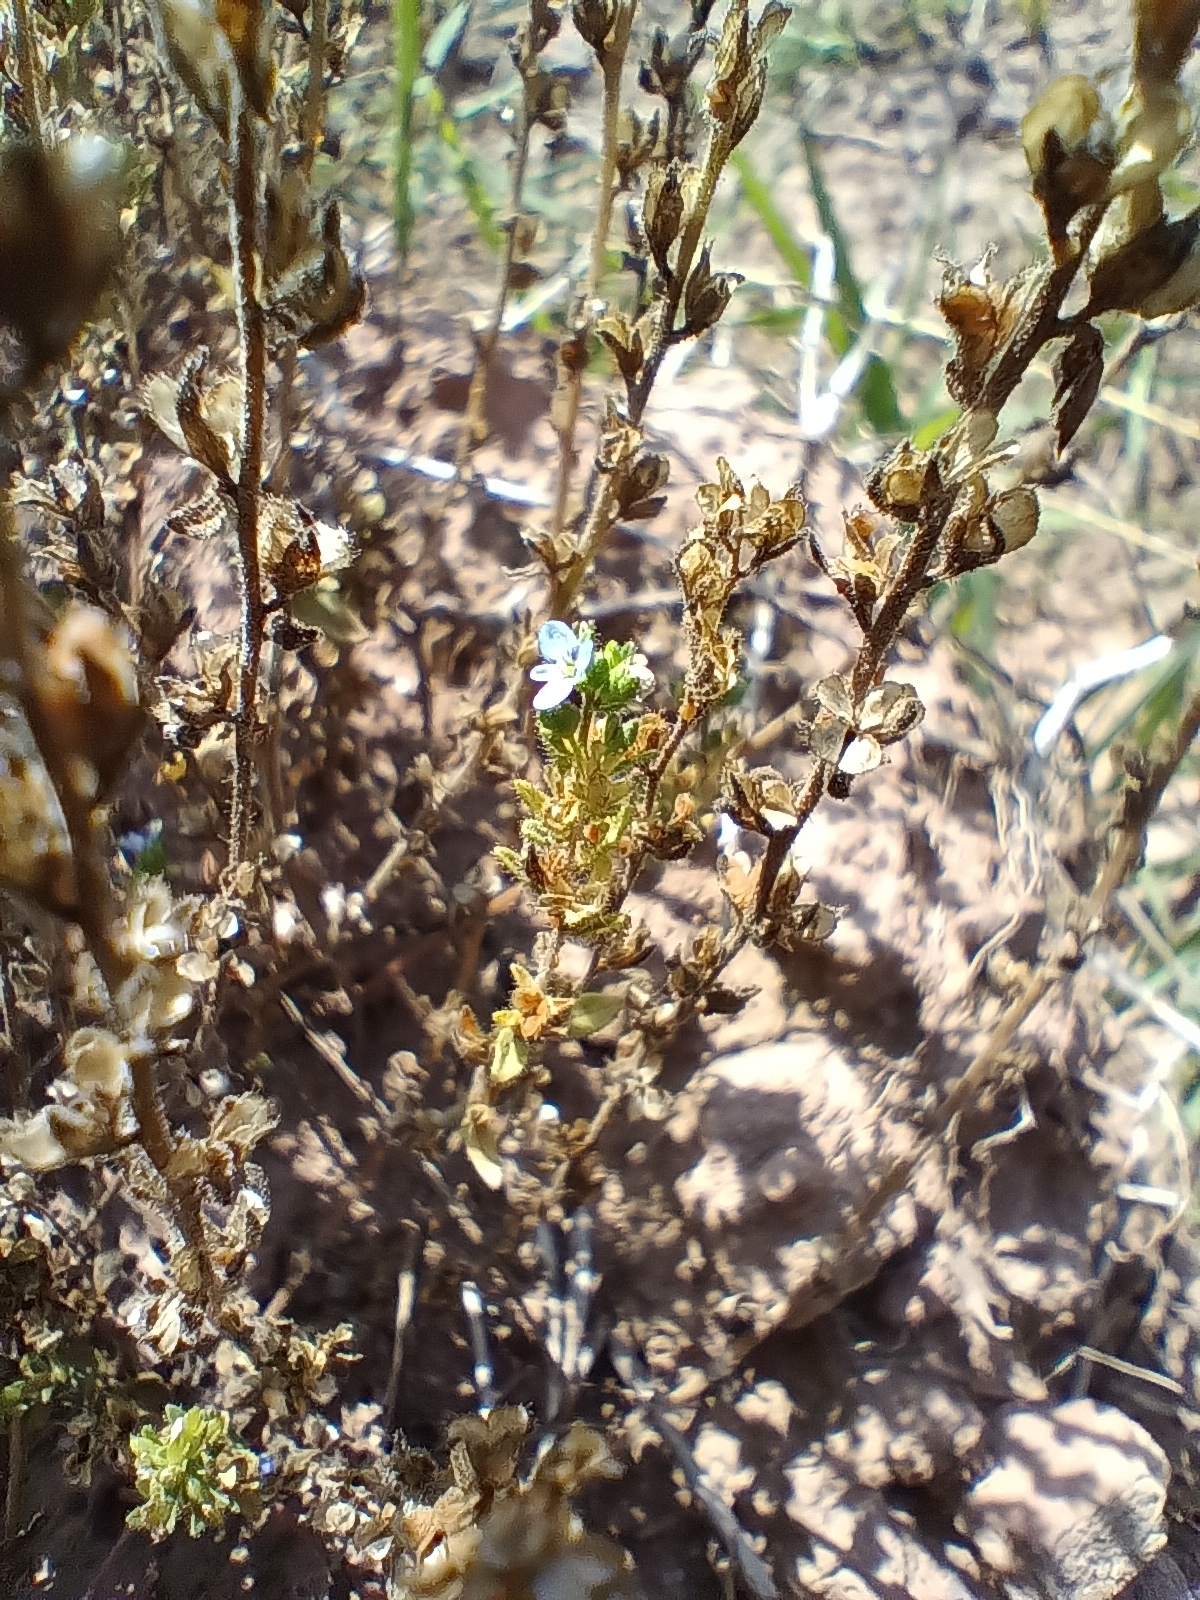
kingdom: Plantae
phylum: Tracheophyta
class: Magnoliopsida
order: Lamiales
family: Plantaginaceae
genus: Veronica
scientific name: Veronica arvensis
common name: Corn speedwell
